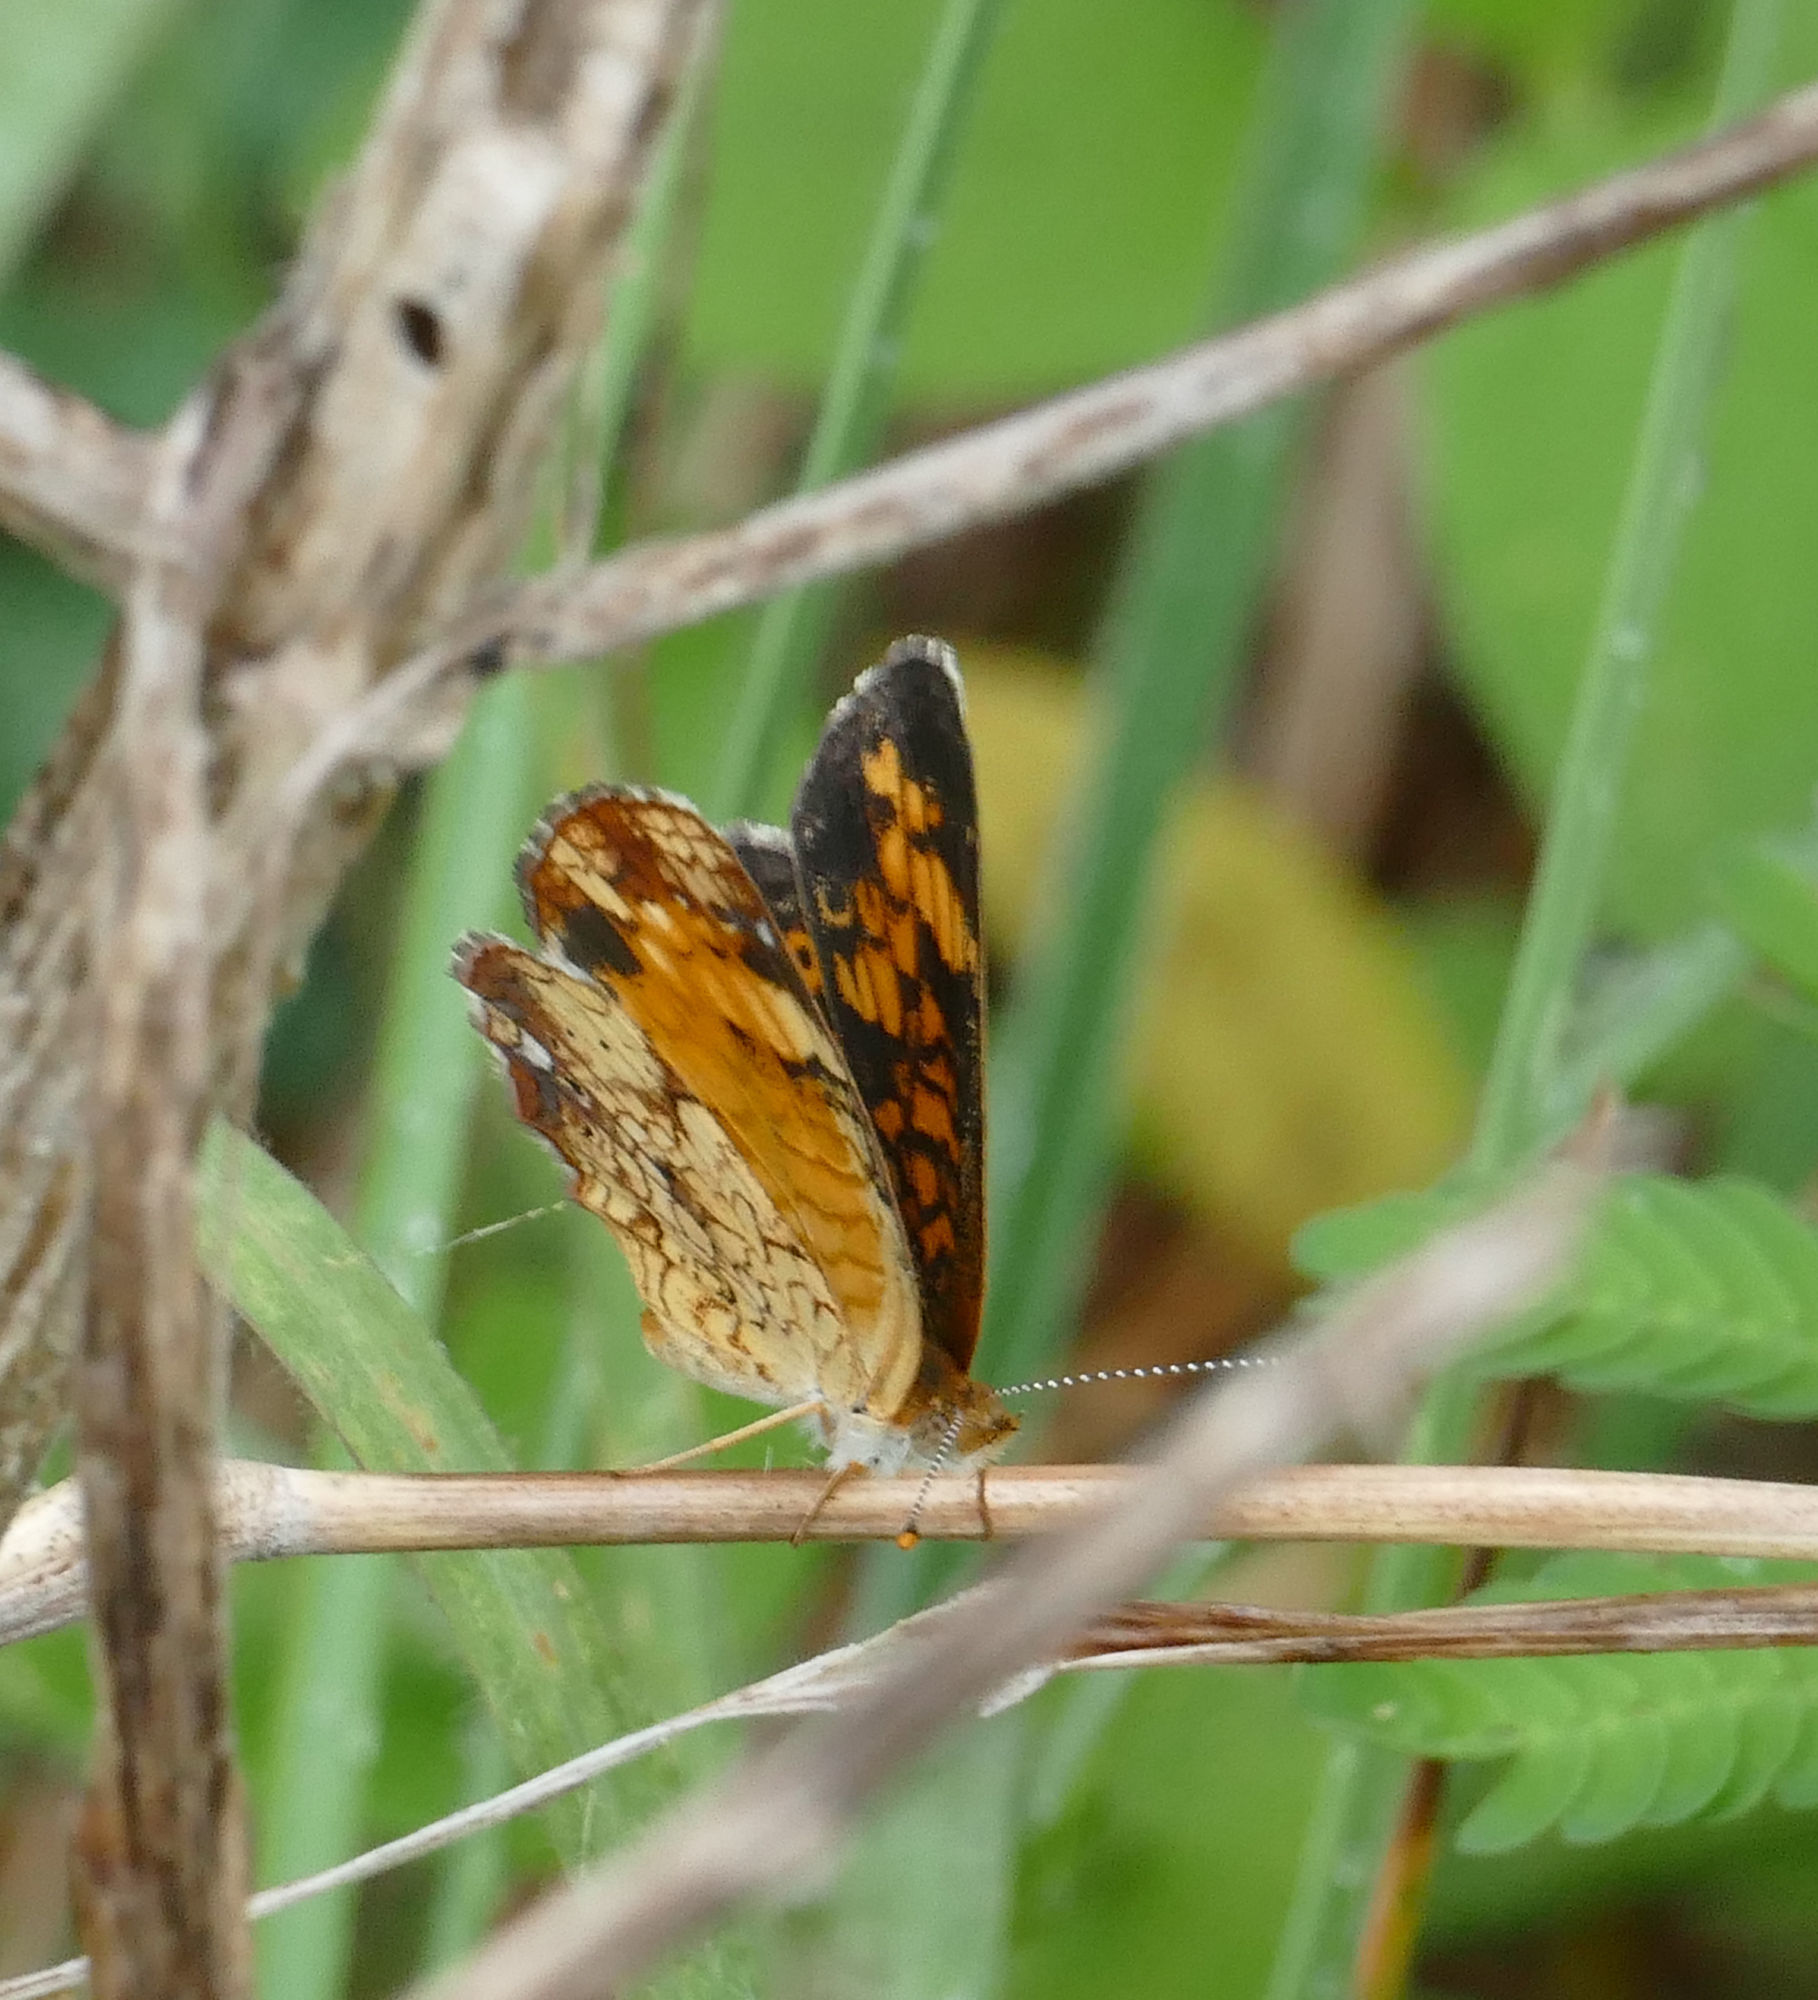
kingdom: Animalia
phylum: Arthropoda
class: Insecta
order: Lepidoptera
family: Nymphalidae
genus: Phyciodes
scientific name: Phyciodes tharos
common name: Pearl crescent
